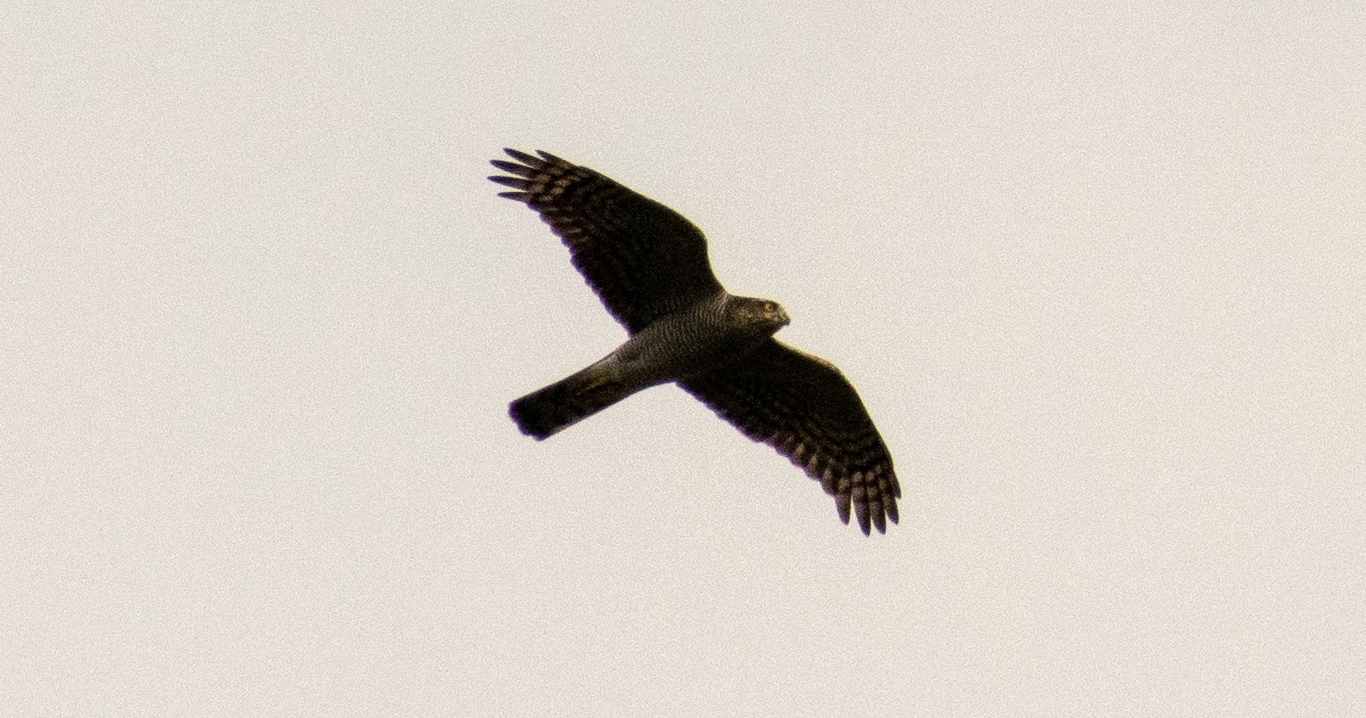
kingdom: Animalia
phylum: Chordata
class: Aves
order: Accipitriformes
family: Accipitridae
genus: Accipiter
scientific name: Accipiter nisus
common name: Eurasian sparrowhawk
